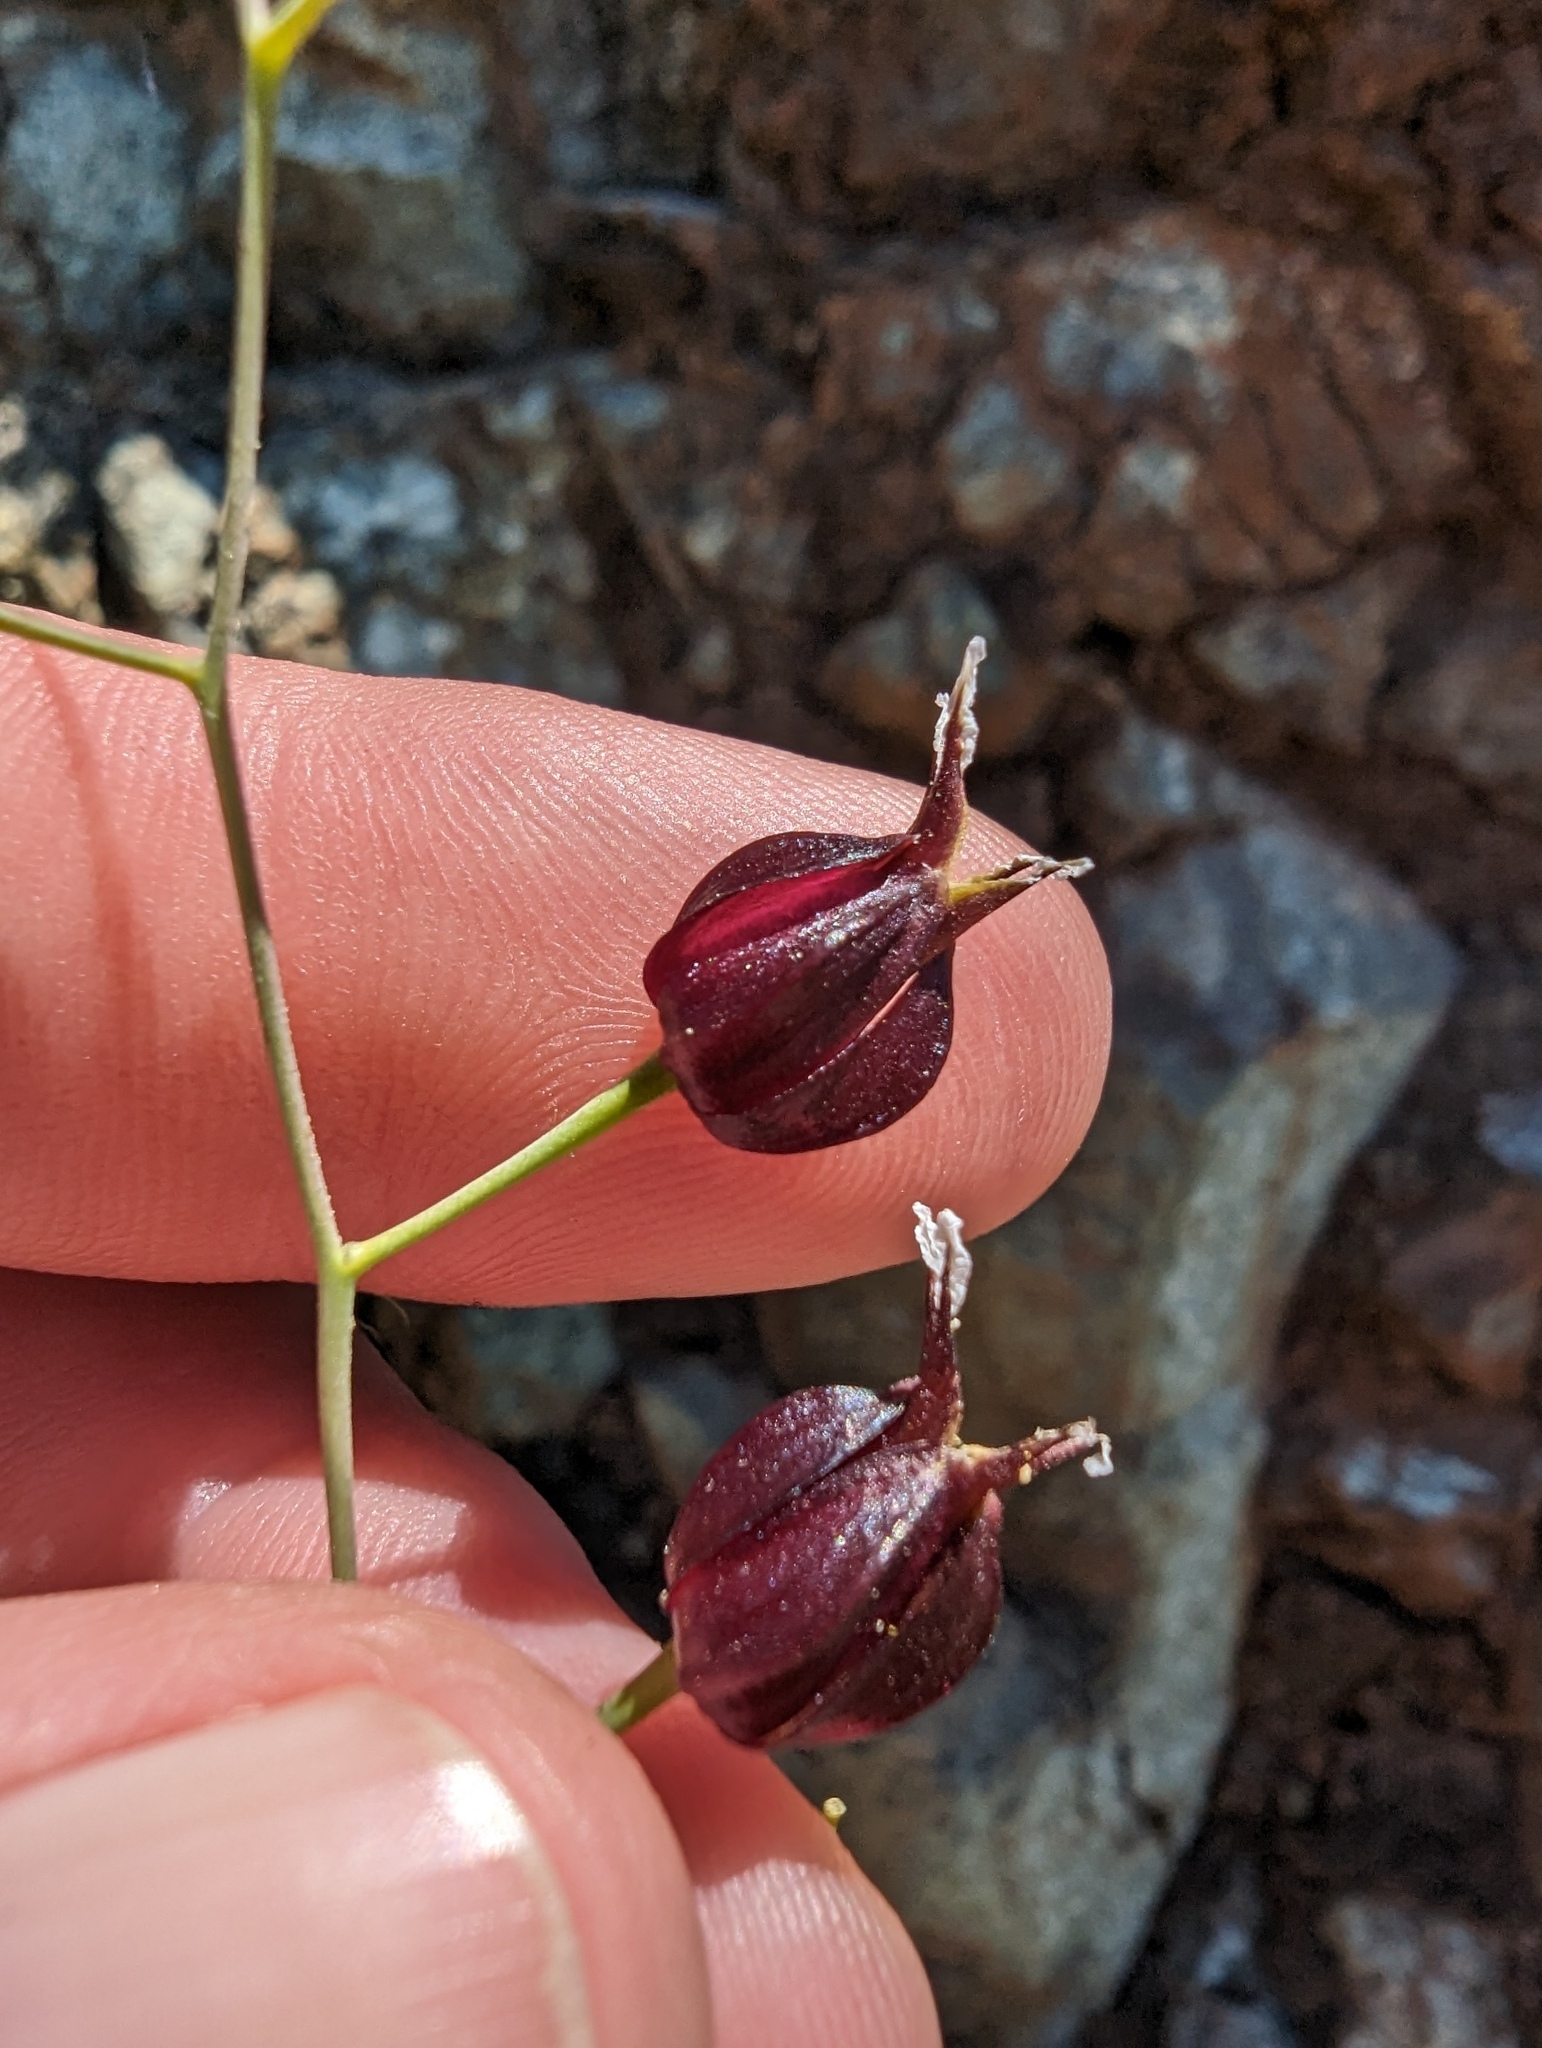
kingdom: Plantae
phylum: Tracheophyta
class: Magnoliopsida
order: Brassicales
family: Brassicaceae
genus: Streptanthus
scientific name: Streptanthus glandulosus
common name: Jewel-flower
